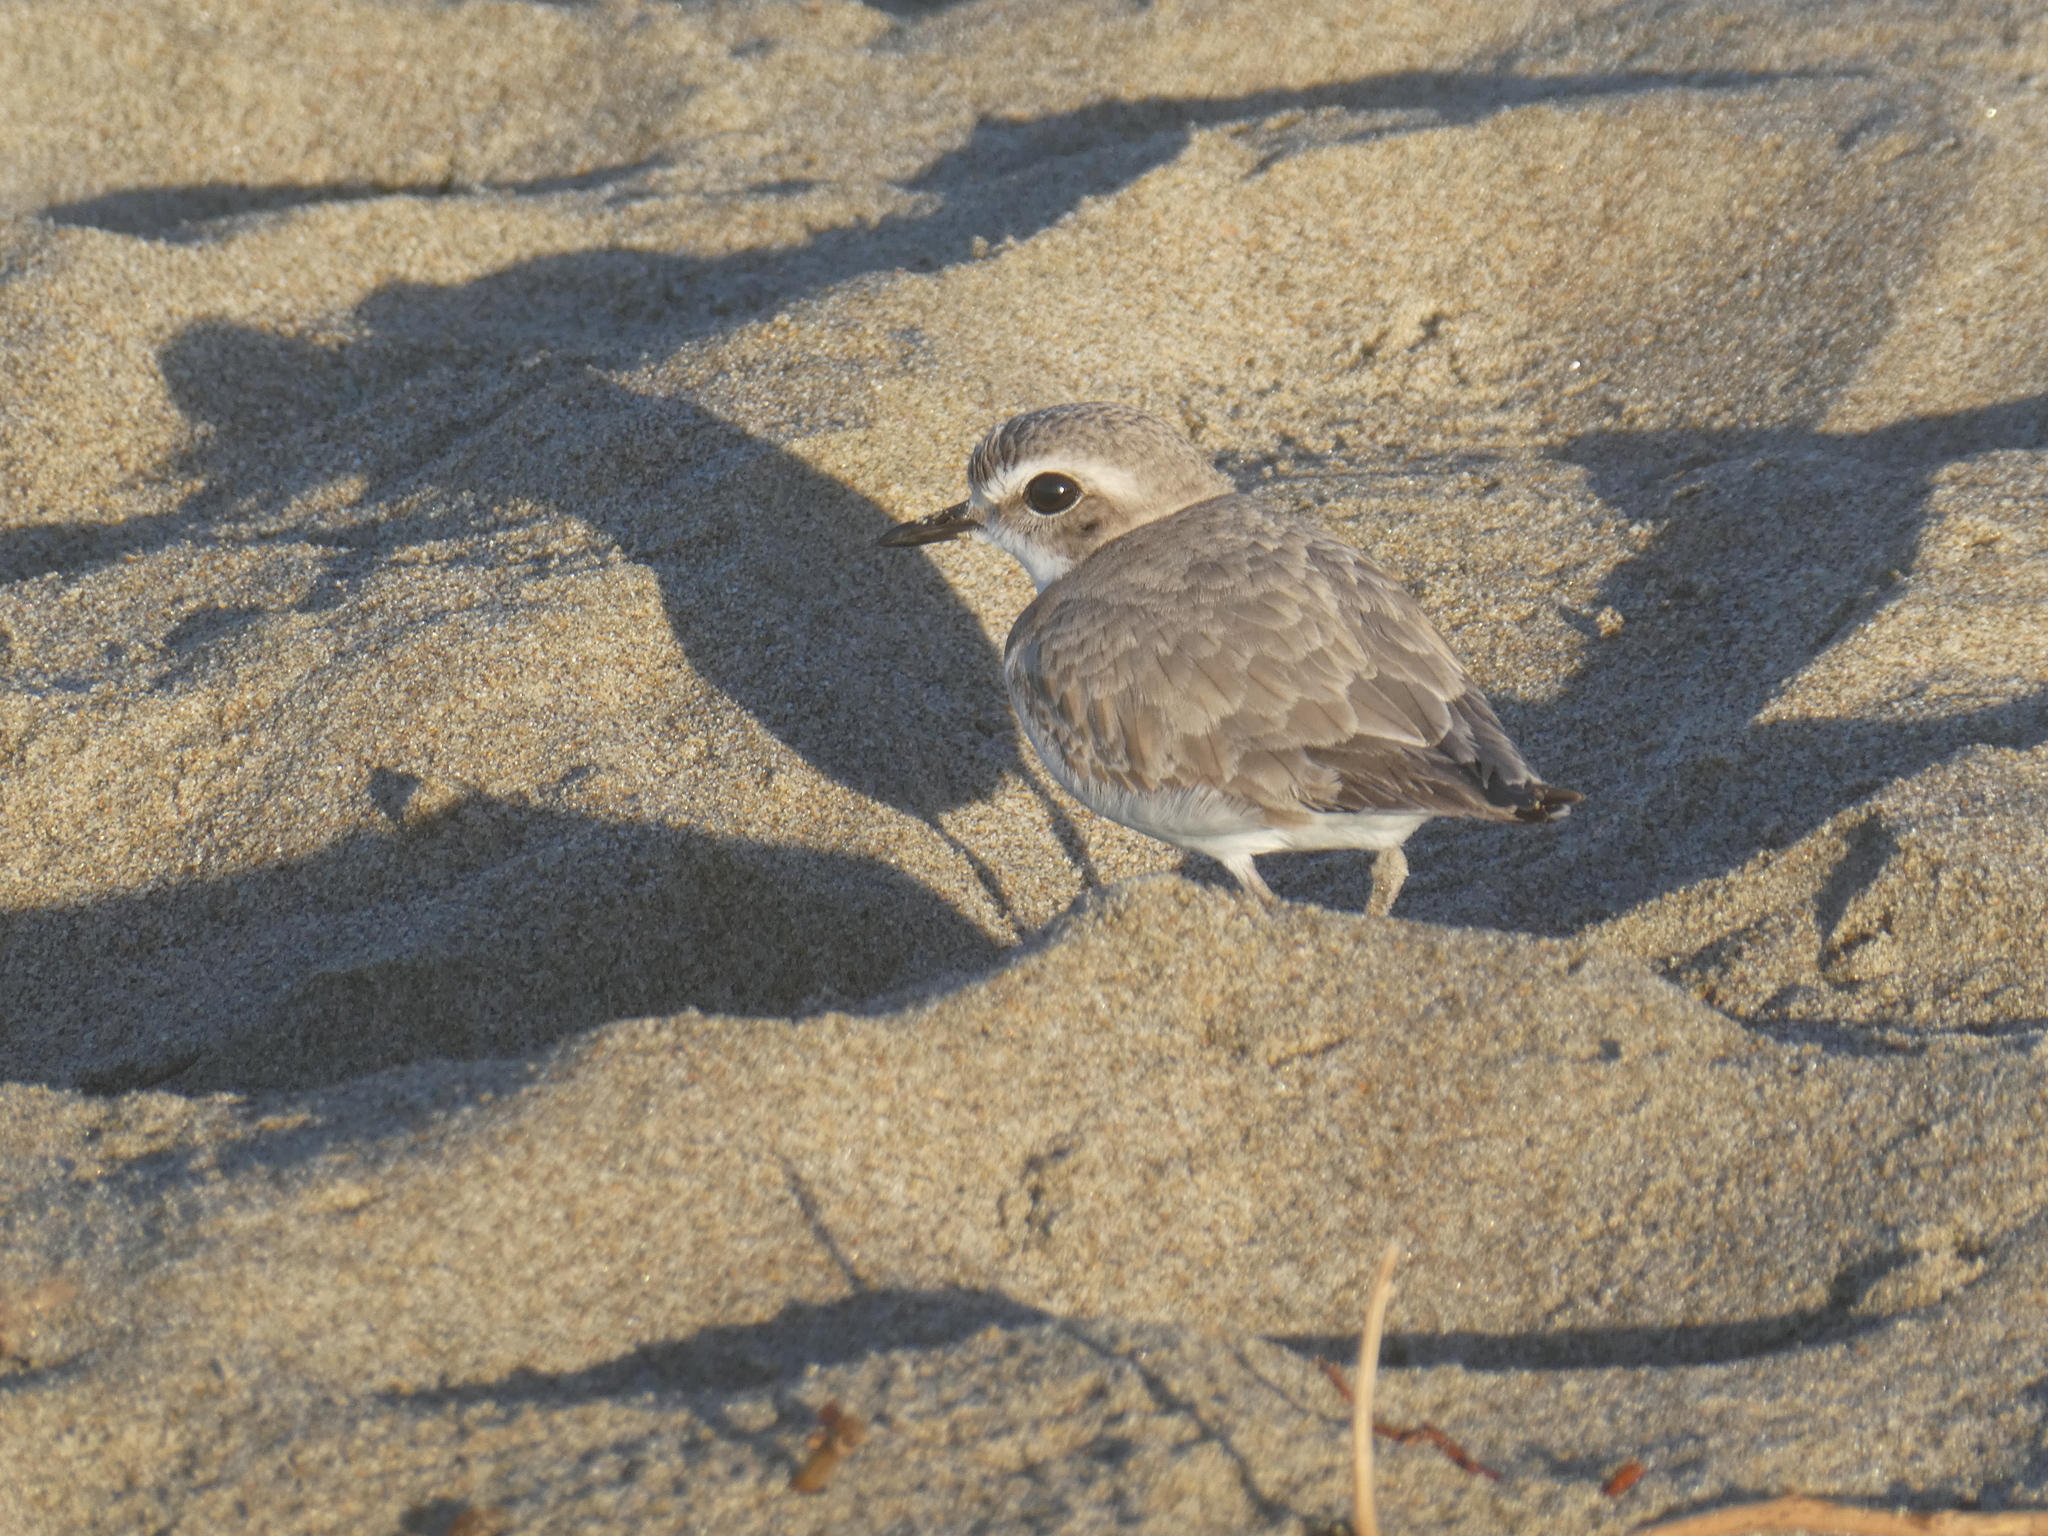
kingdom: Animalia
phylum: Chordata
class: Aves
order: Charadriiformes
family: Charadriidae
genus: Anarhynchus
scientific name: Anarhynchus
